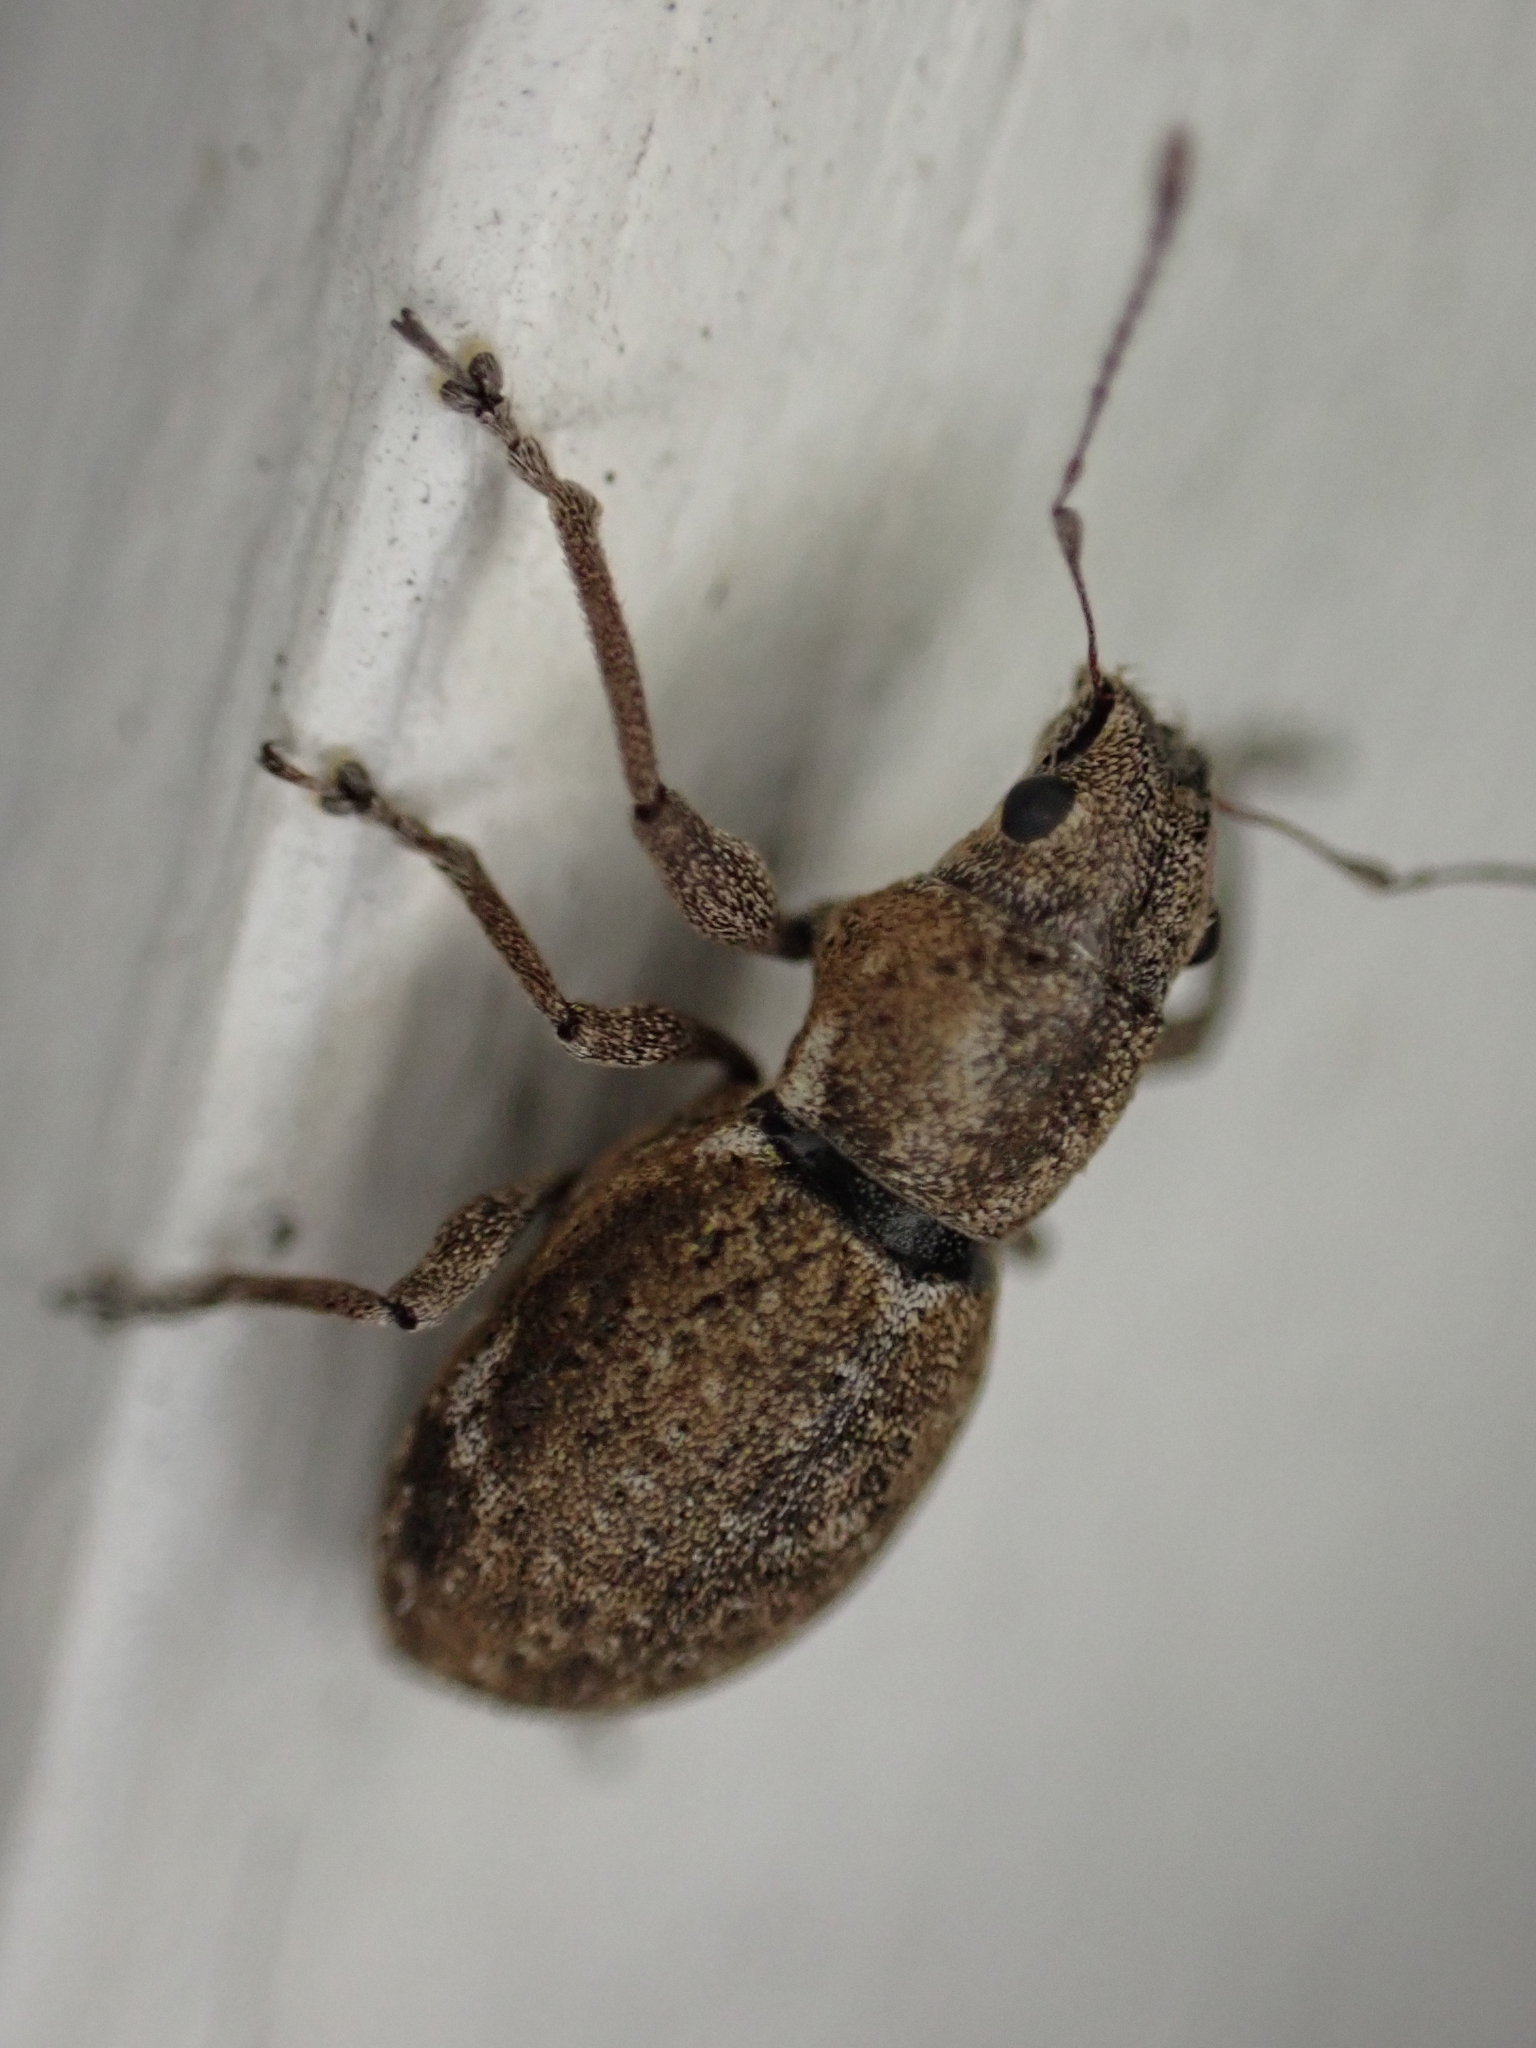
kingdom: Animalia
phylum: Arthropoda
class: Insecta
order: Coleoptera
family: Curculionidae
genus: Naupactus
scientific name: Naupactus cervinus
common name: Fuller rose beetle
